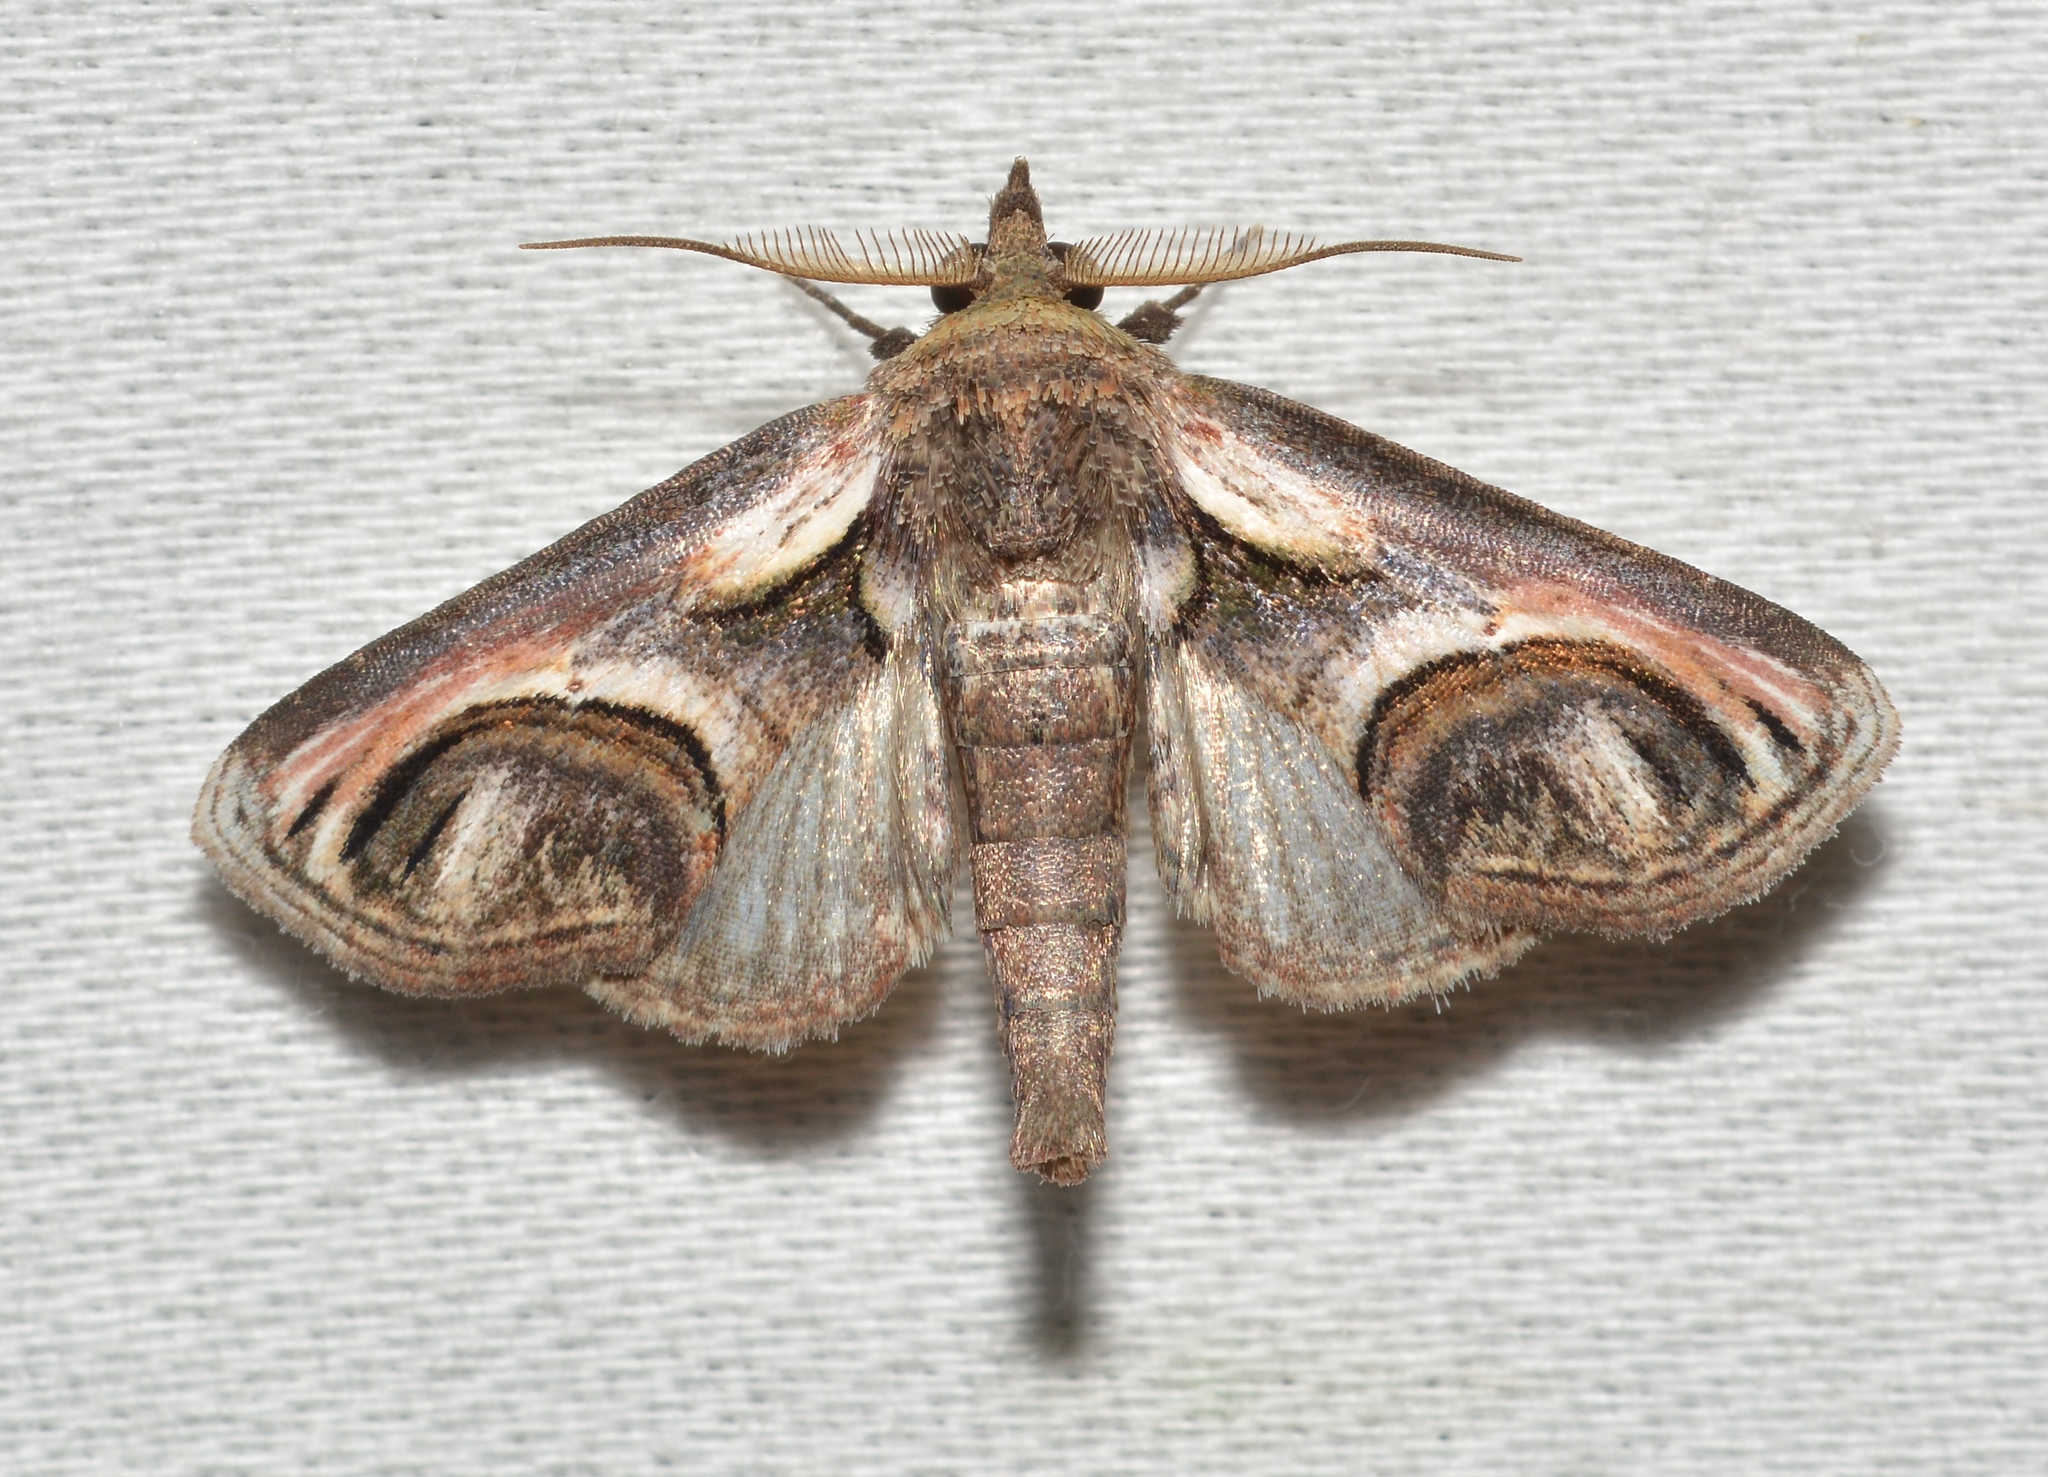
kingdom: Animalia
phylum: Arthropoda
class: Insecta
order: Lepidoptera
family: Euteliidae
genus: Paectes
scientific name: Paectes oculatrix
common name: Eyed paectes moth
